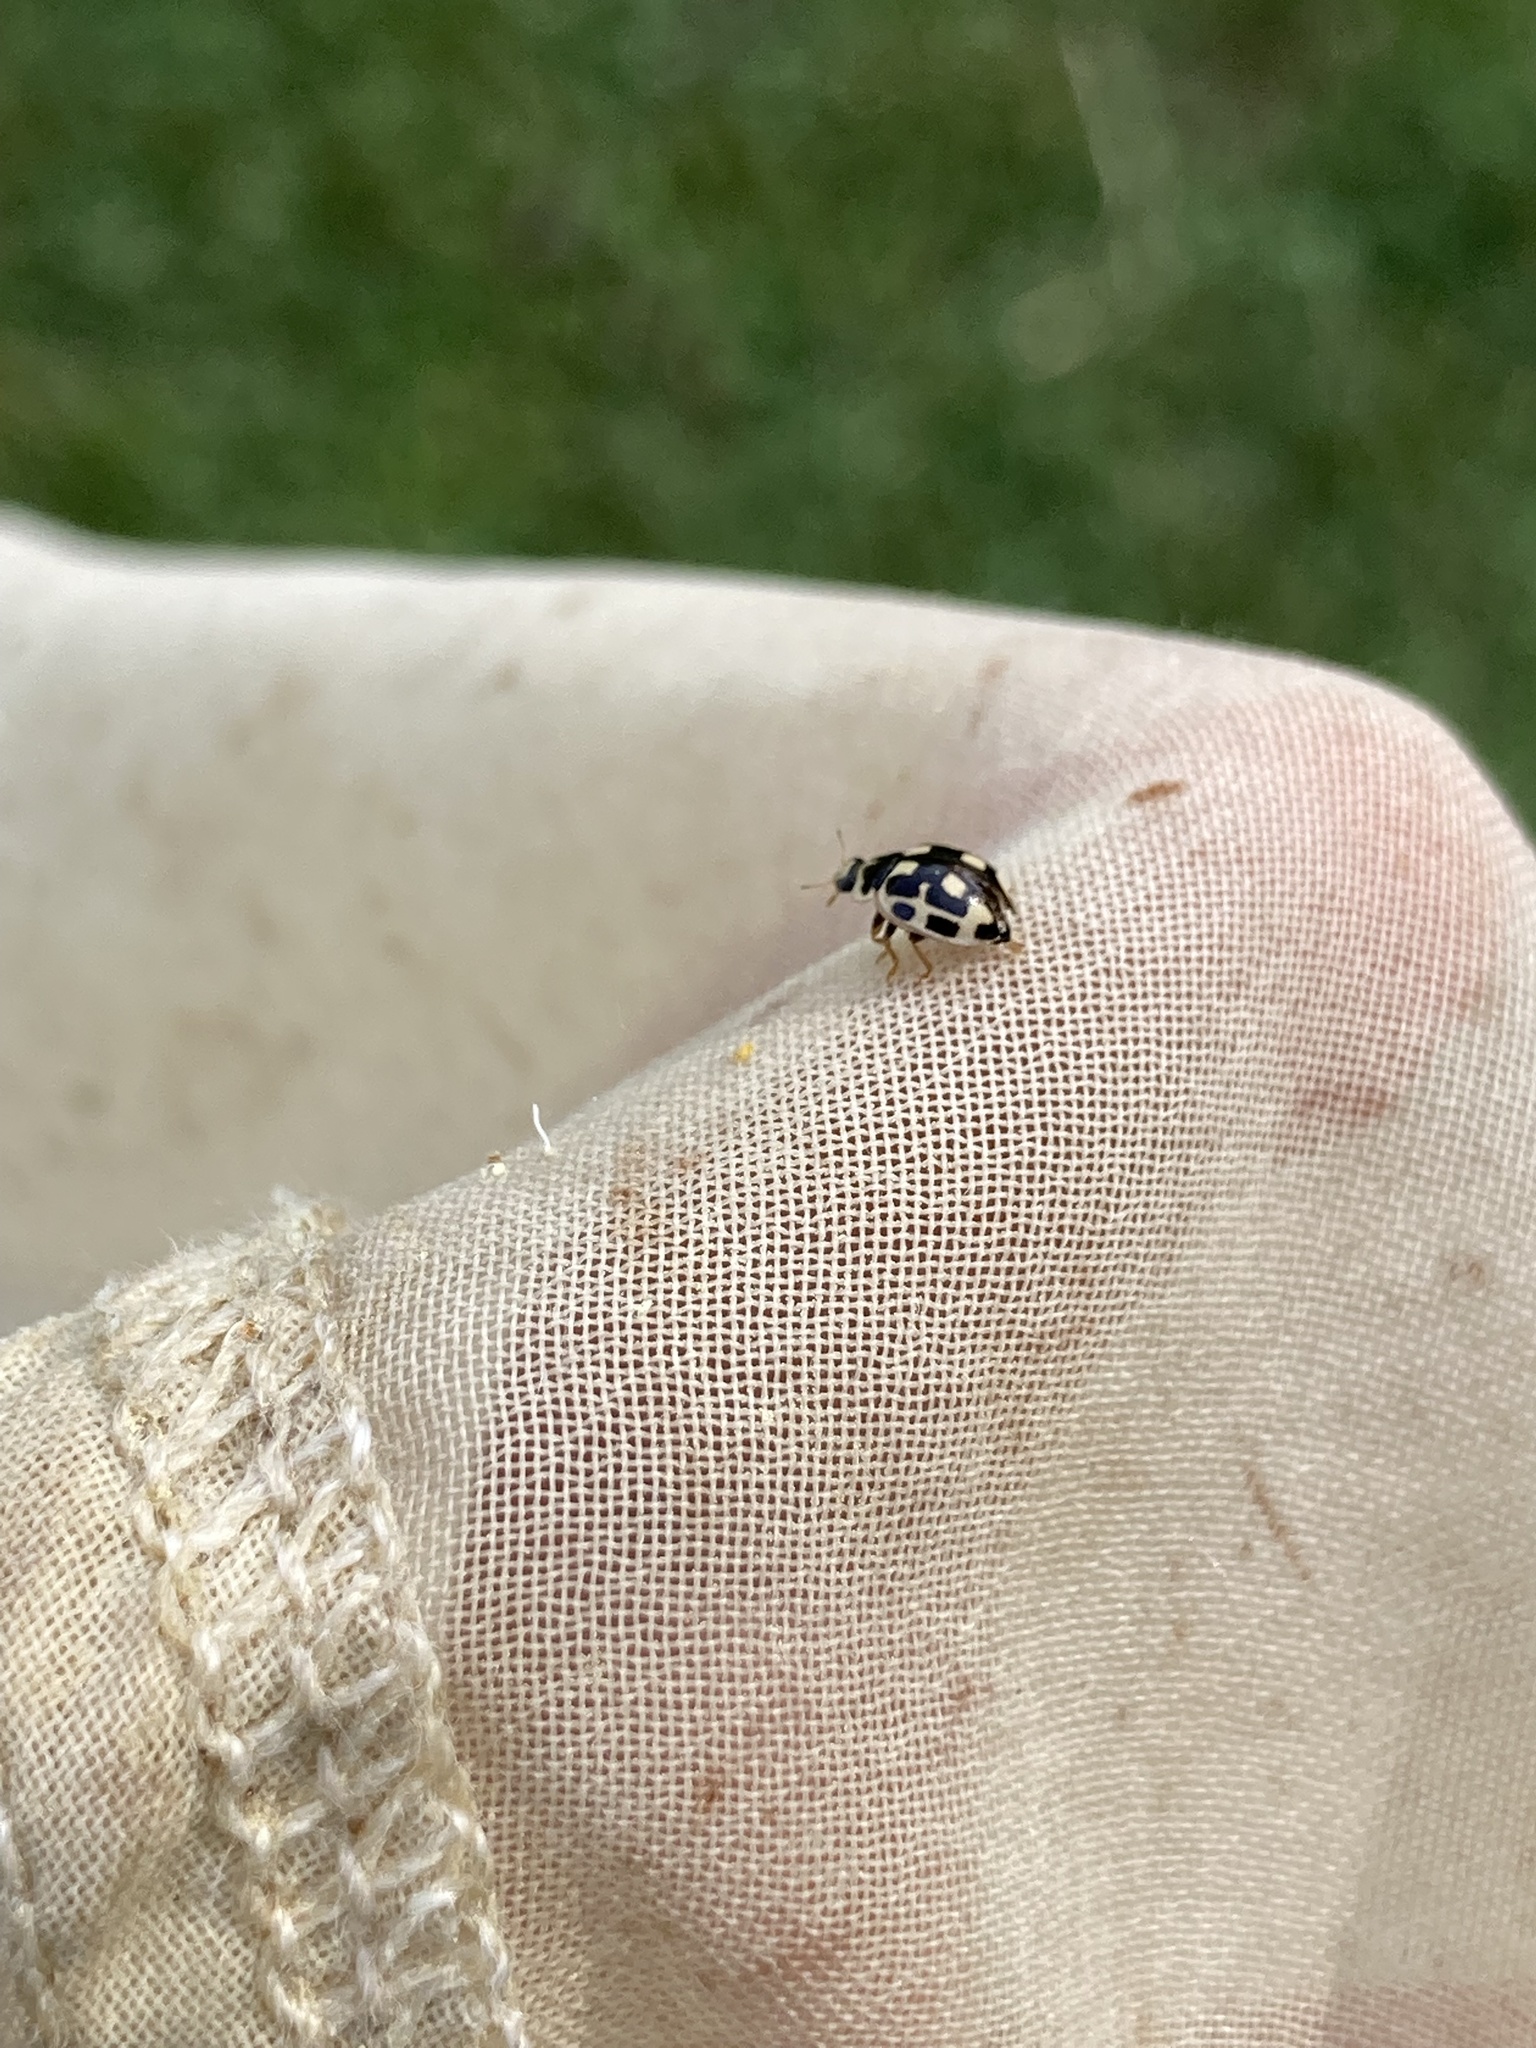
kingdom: Animalia
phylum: Arthropoda
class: Insecta
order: Coleoptera
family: Coccinellidae
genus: Propylaea
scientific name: Propylaea quatuordecimpunctata
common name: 14-spotted ladybird beetle
